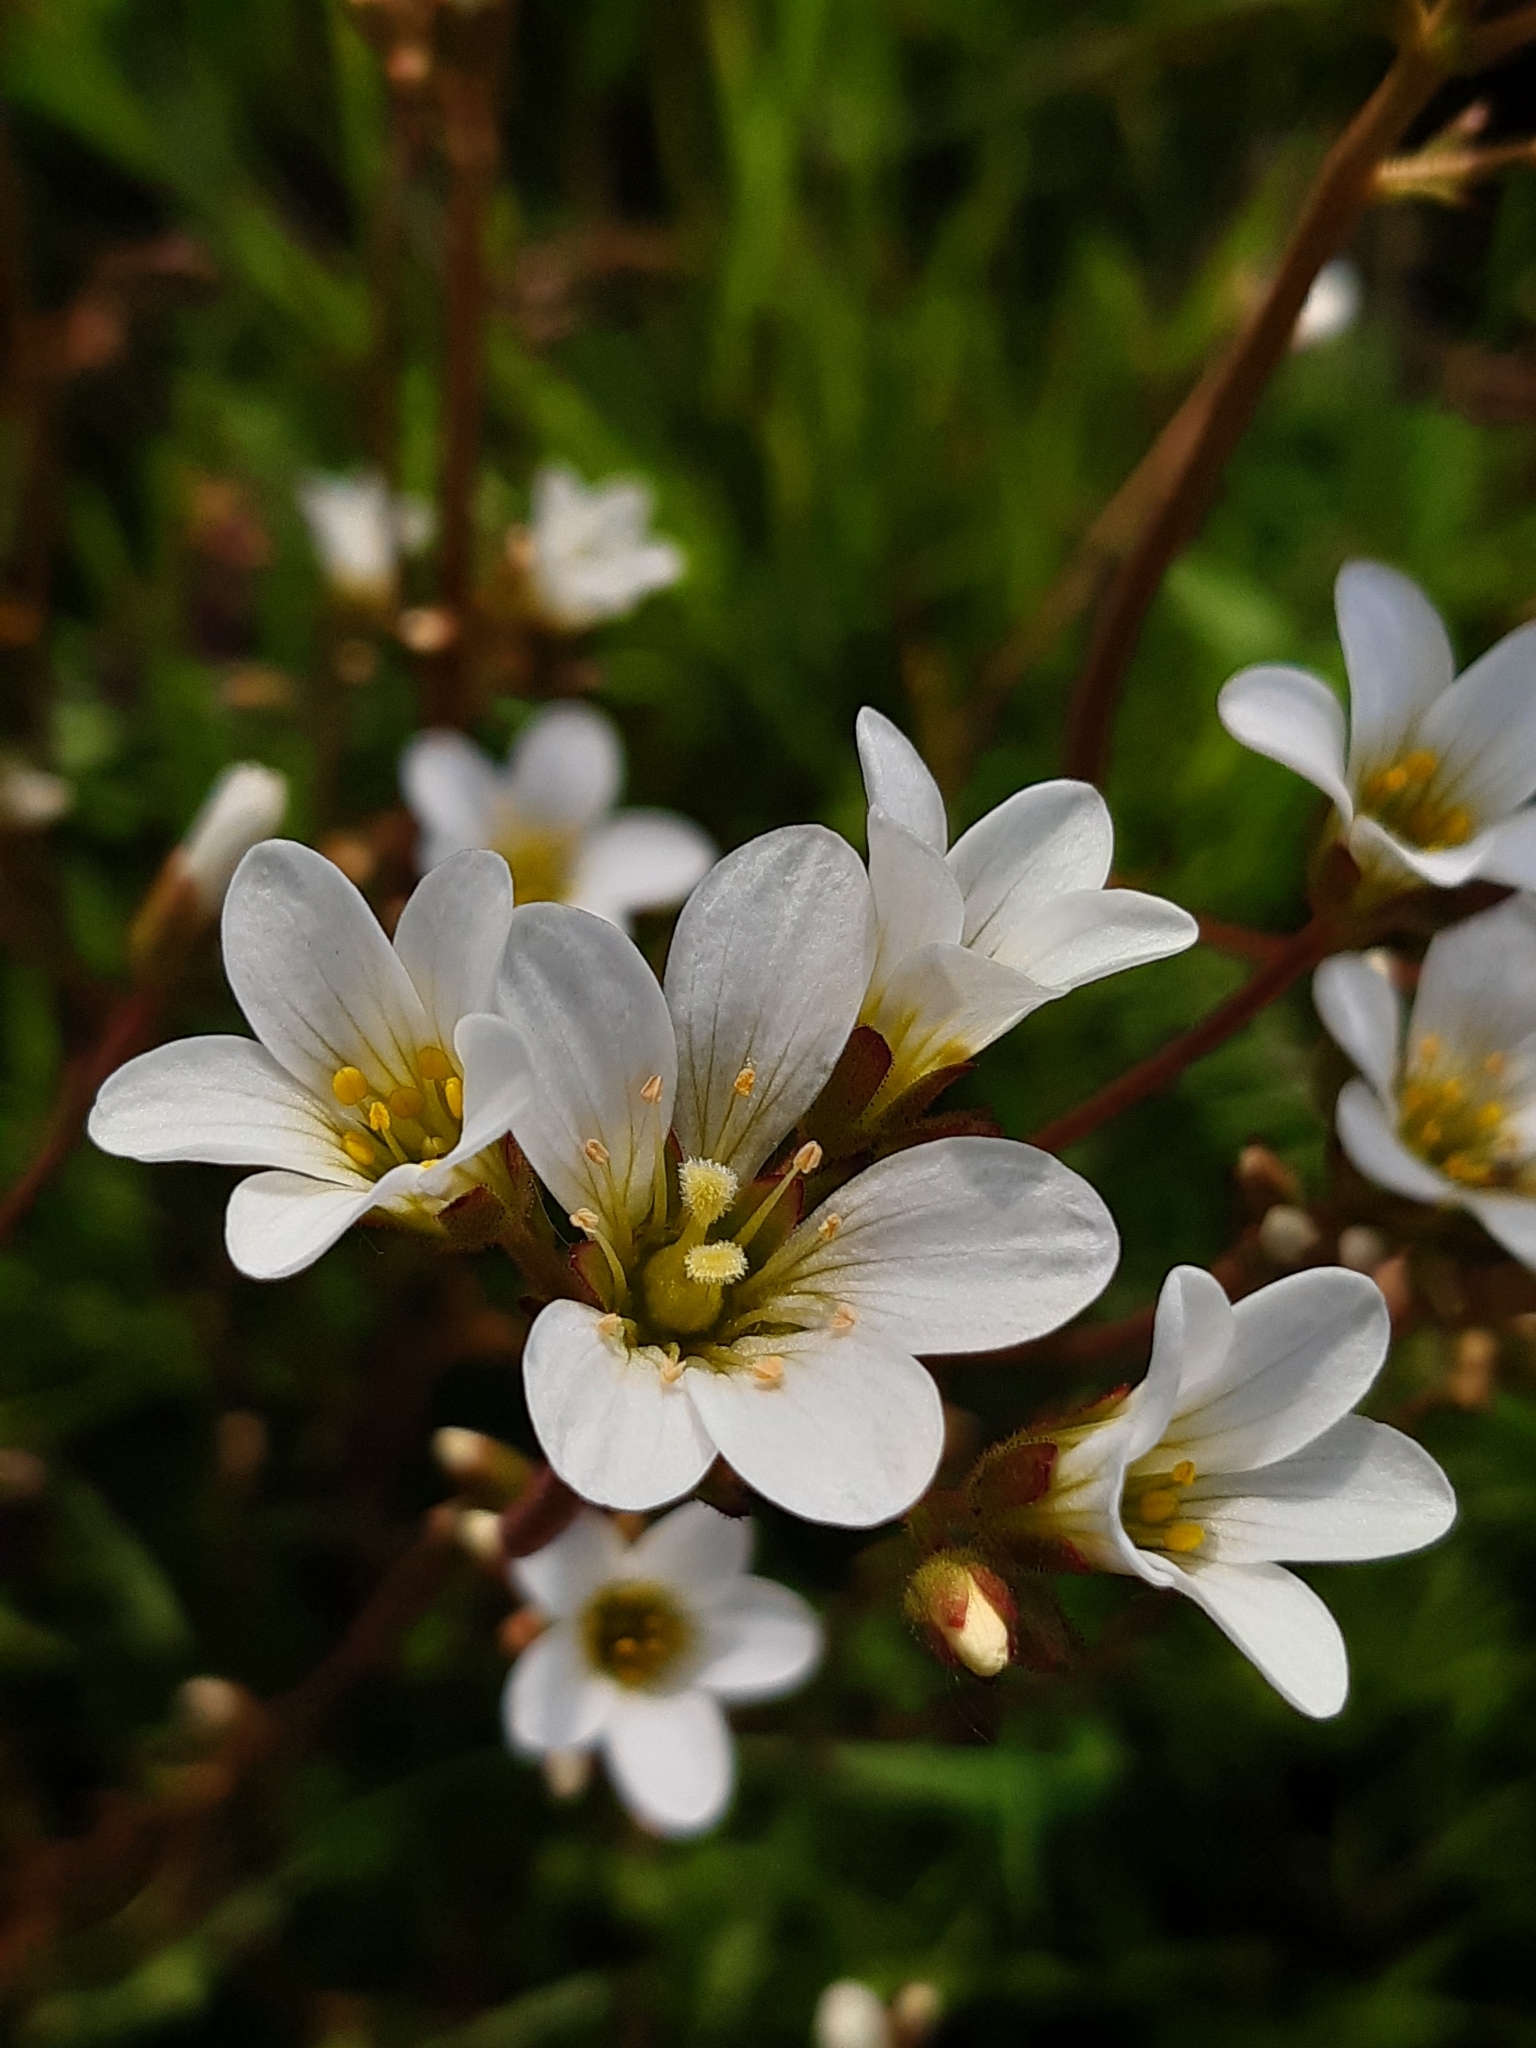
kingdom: Plantae
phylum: Tracheophyta
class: Magnoliopsida
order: Saxifragales
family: Saxifragaceae
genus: Saxifraga
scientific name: Saxifraga granulata
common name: Meadow saxifrage
